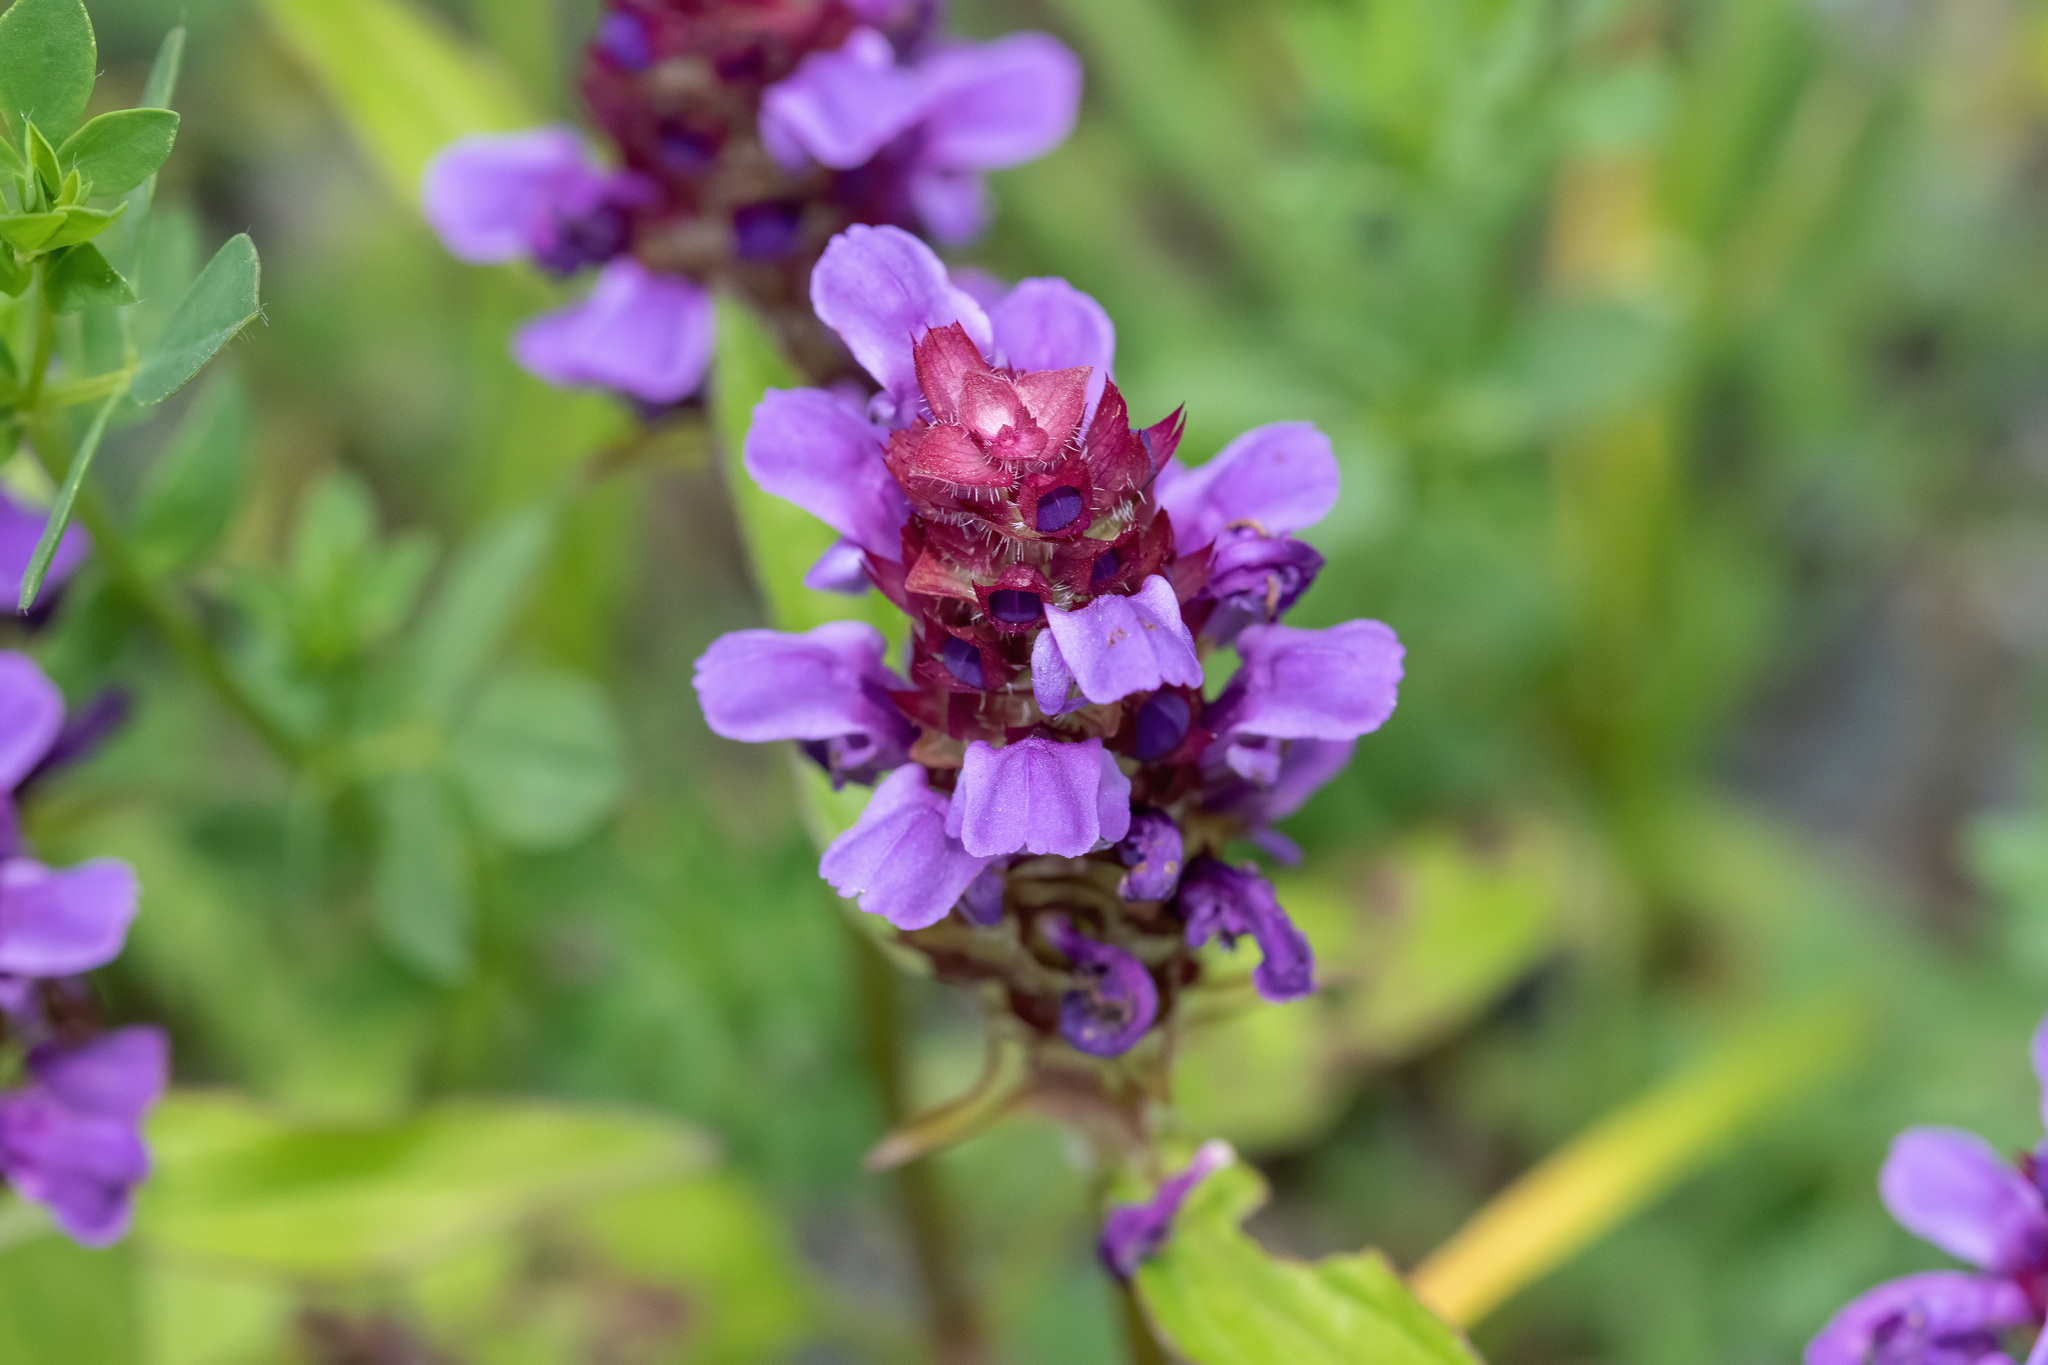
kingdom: Plantae
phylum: Tracheophyta
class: Magnoliopsida
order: Lamiales
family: Lamiaceae
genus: Prunella
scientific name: Prunella vulgaris
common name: Heal-all
